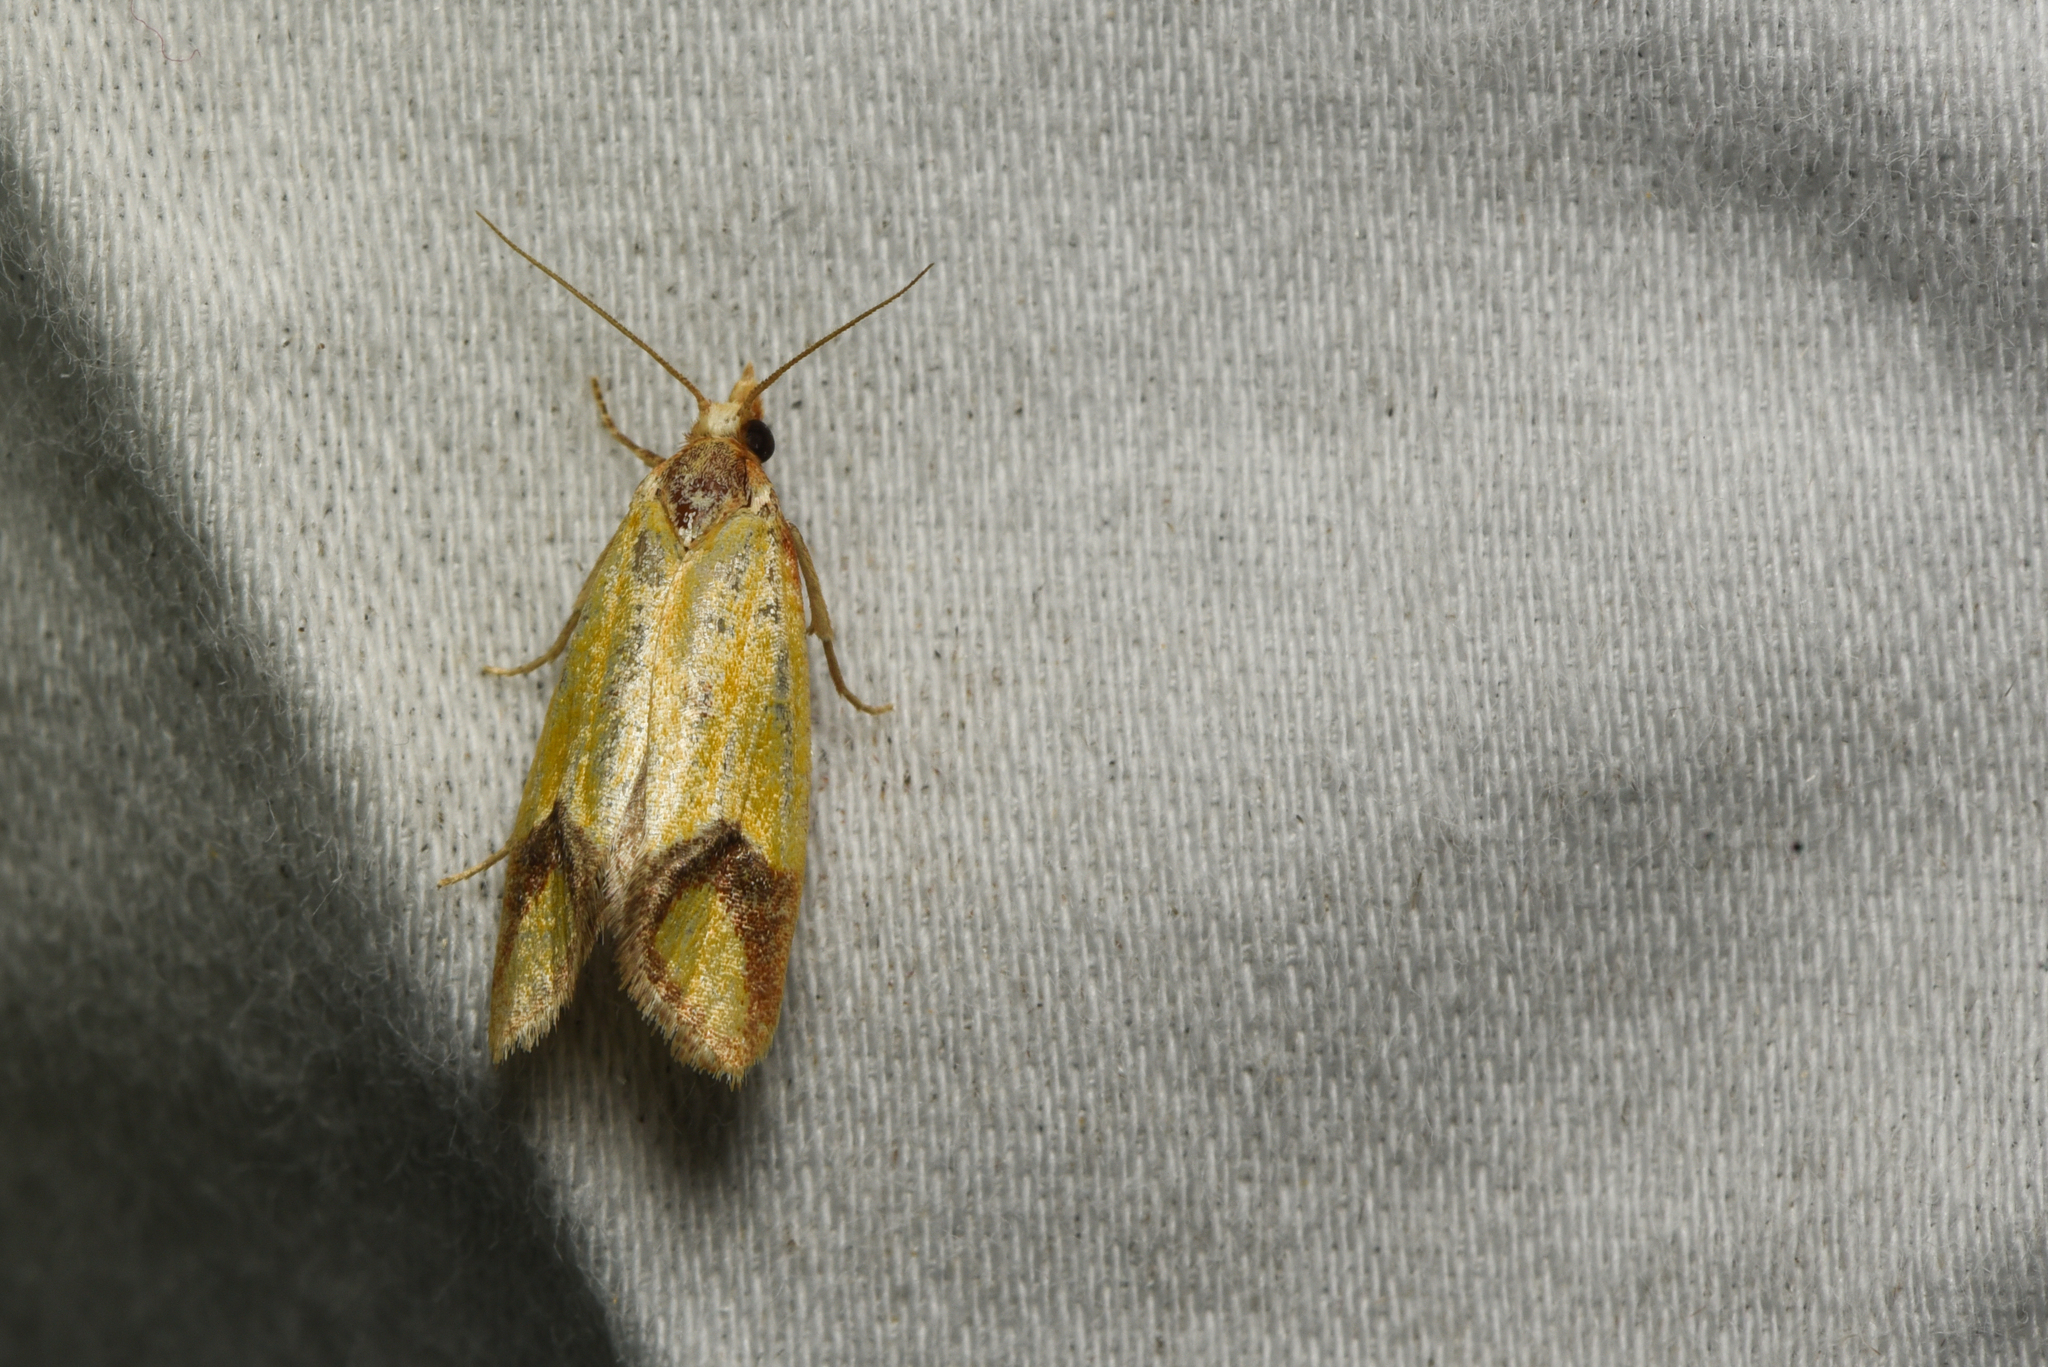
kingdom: Animalia
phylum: Arthropoda
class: Insecta
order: Lepidoptera
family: Tortricidae
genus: Agapeta
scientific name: Agapeta zoegana
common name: Sulfur knapweed root moth
